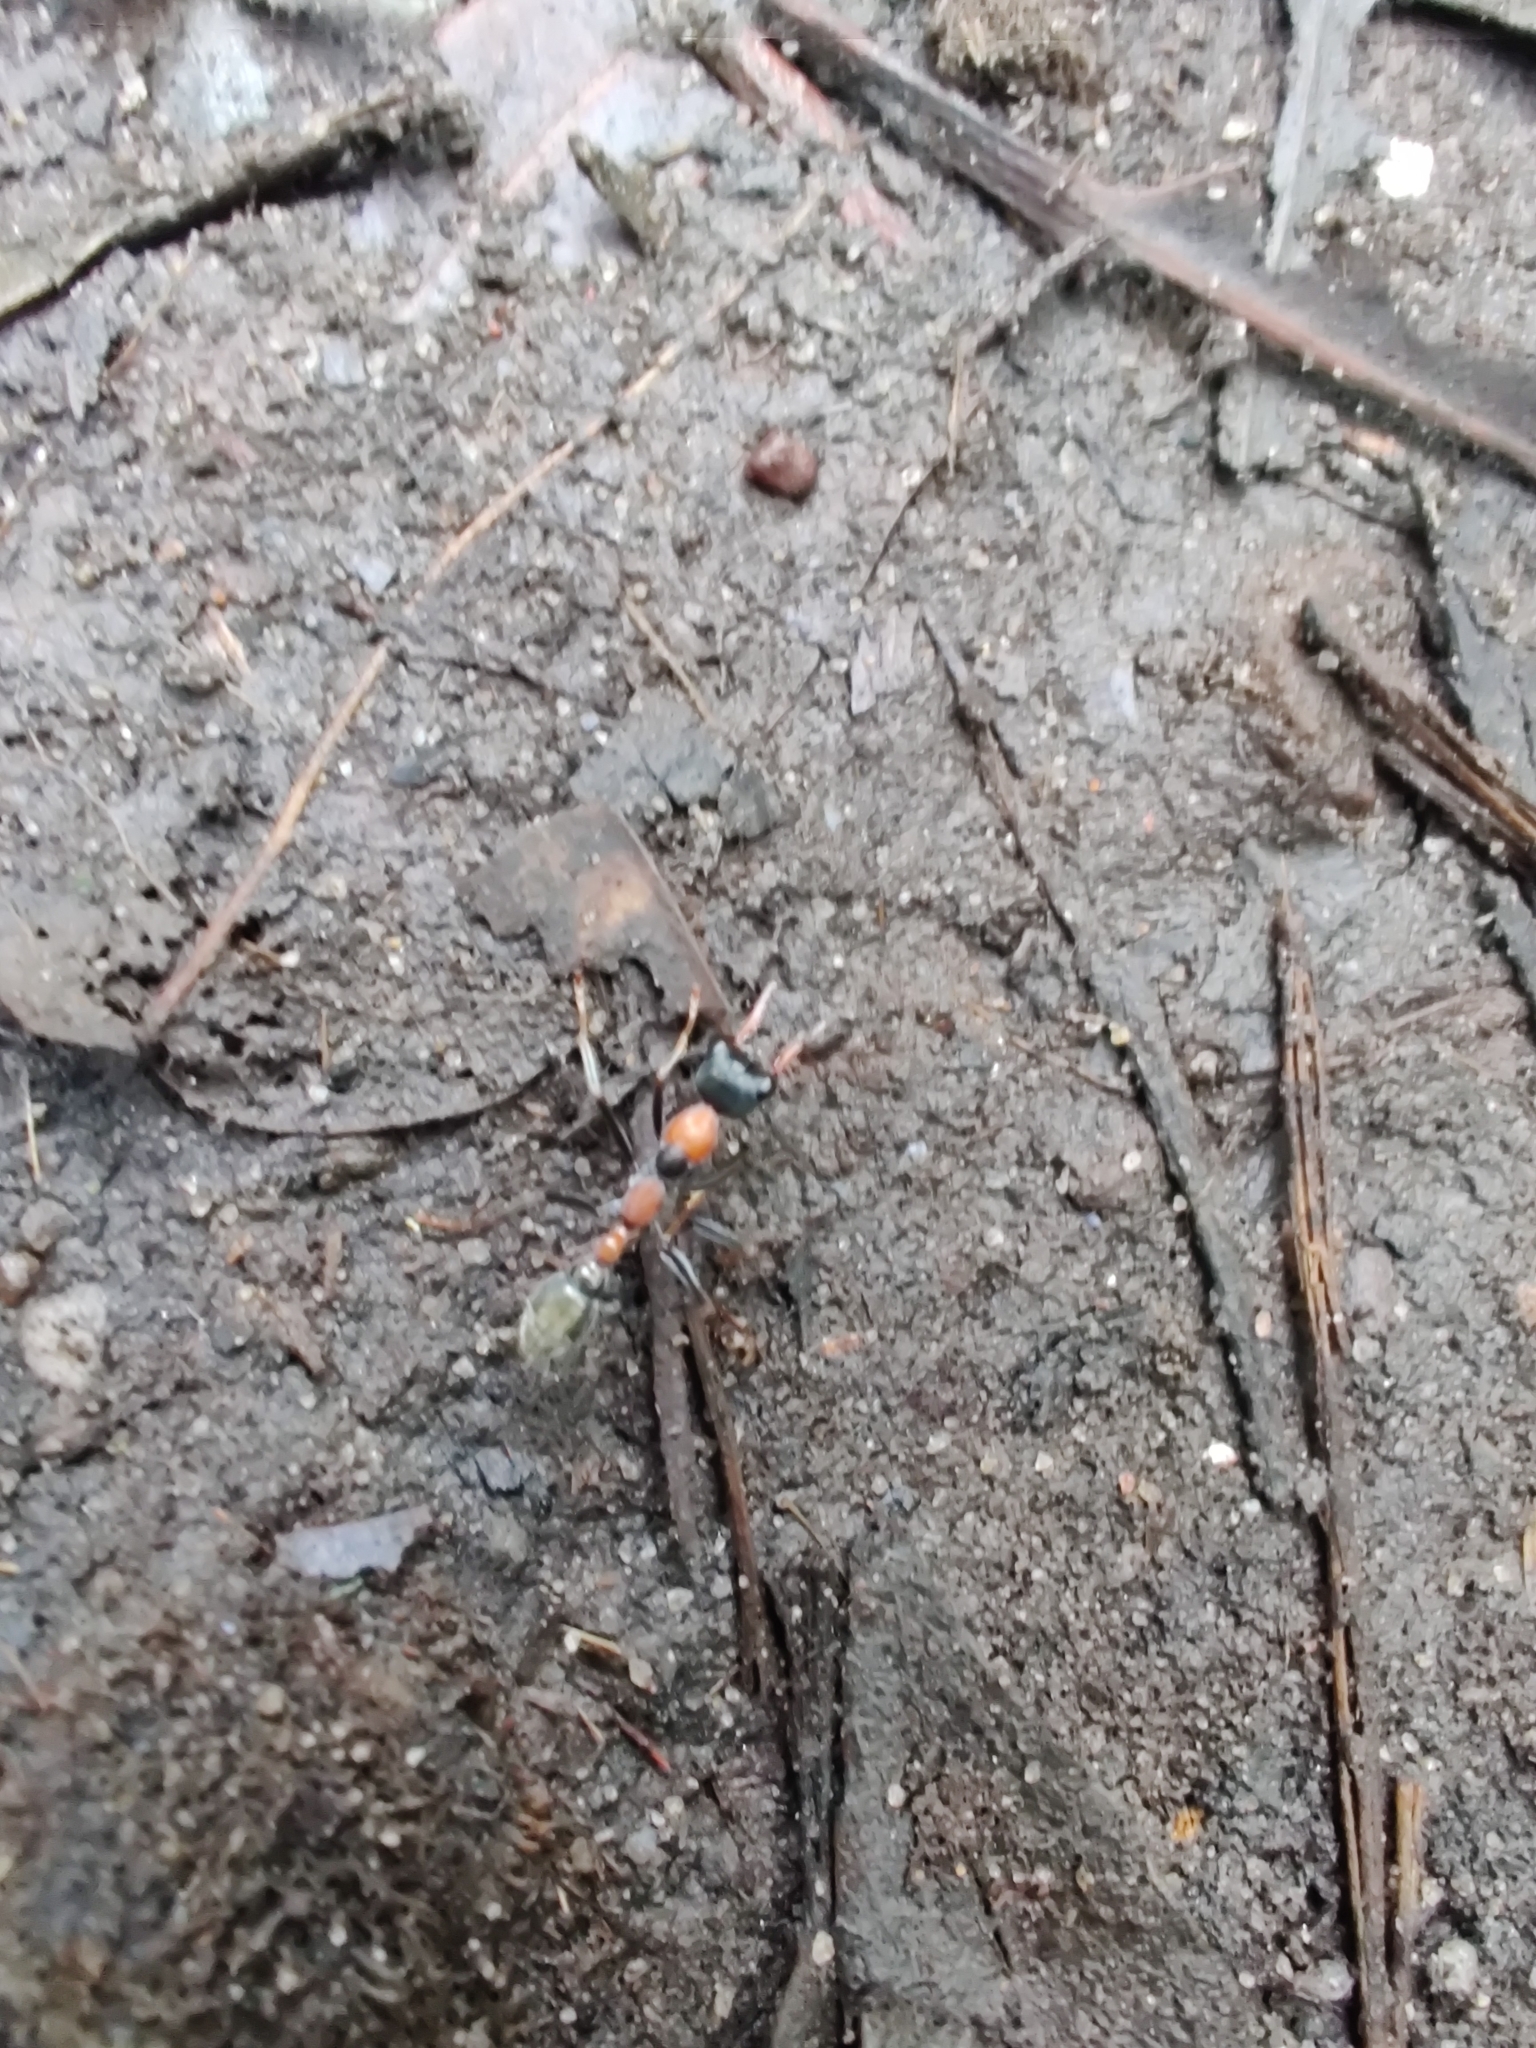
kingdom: Animalia
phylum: Arthropoda
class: Insecta
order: Hymenoptera
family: Formicidae
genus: Myrmecia
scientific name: Myrmecia nigrocincta
